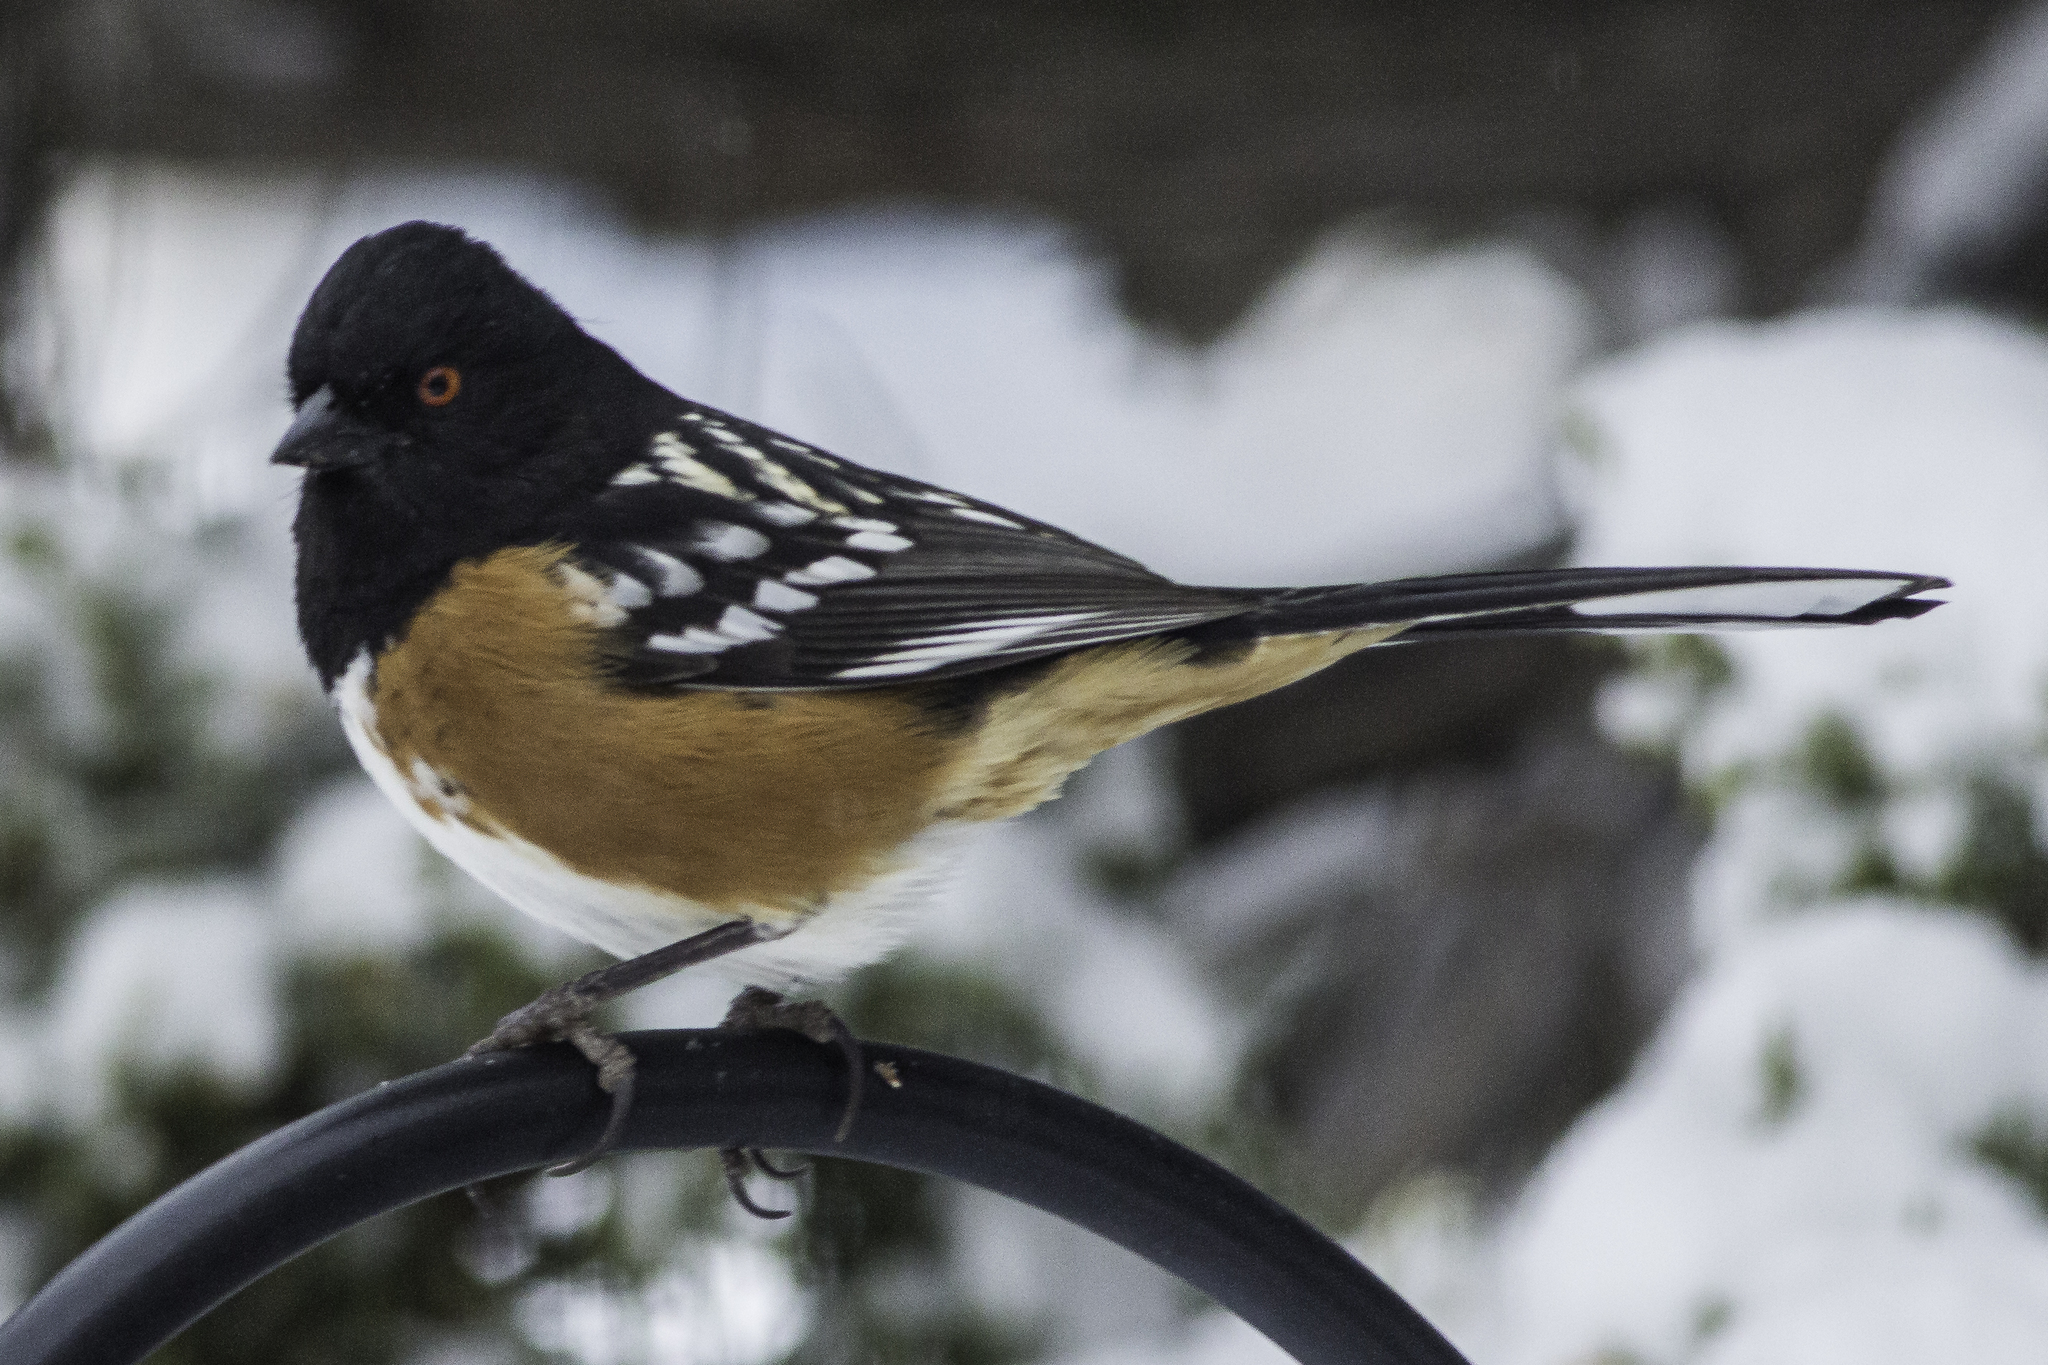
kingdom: Animalia
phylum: Chordata
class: Aves
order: Passeriformes
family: Passerellidae
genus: Pipilo
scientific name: Pipilo maculatus
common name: Spotted towhee
